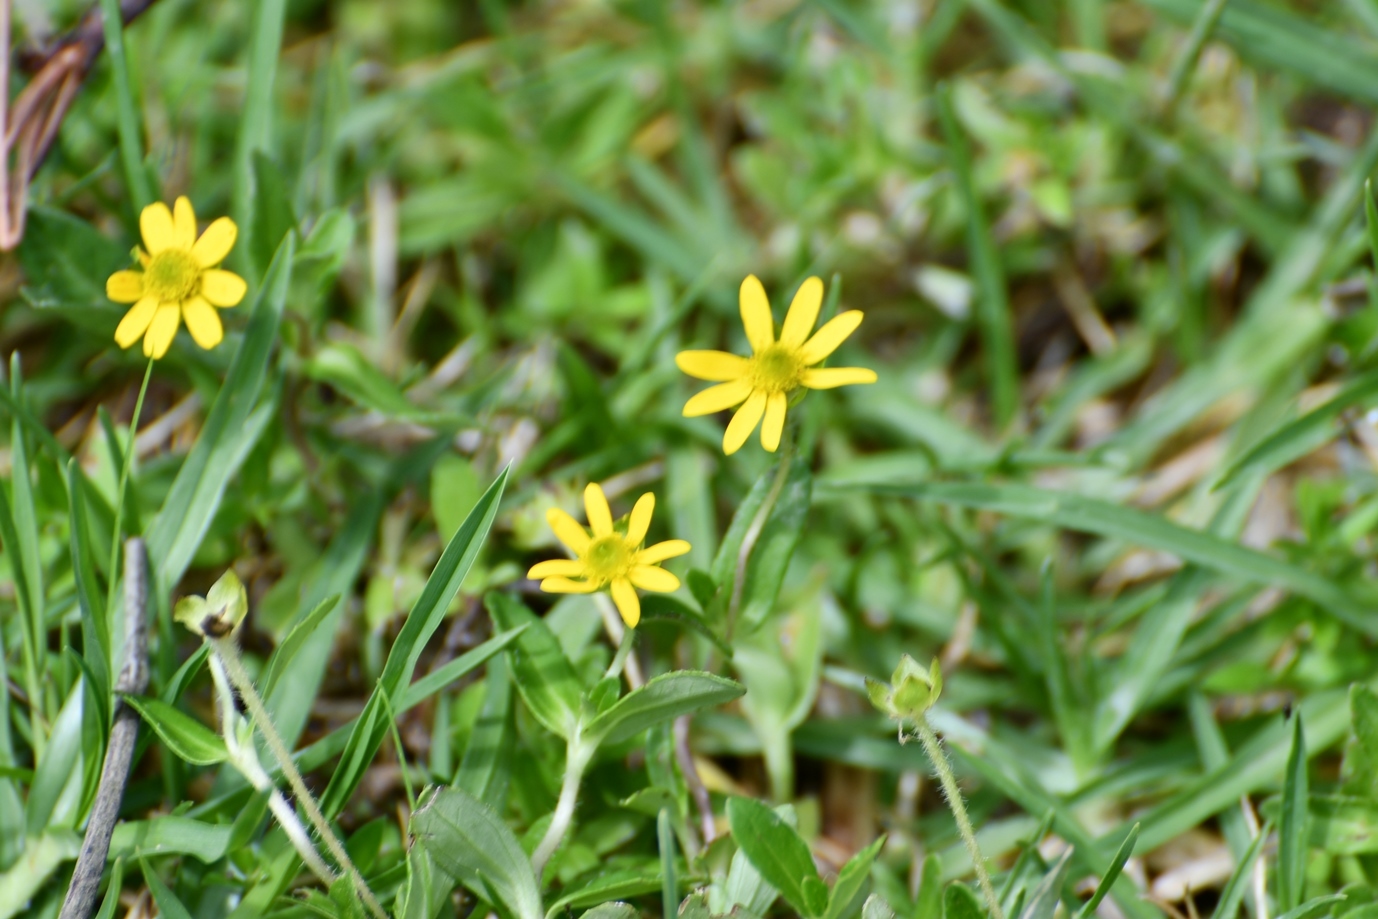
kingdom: Plantae
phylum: Tracheophyta
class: Magnoliopsida
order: Asterales
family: Asteraceae
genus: Melampodium
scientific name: Melampodium montanum
